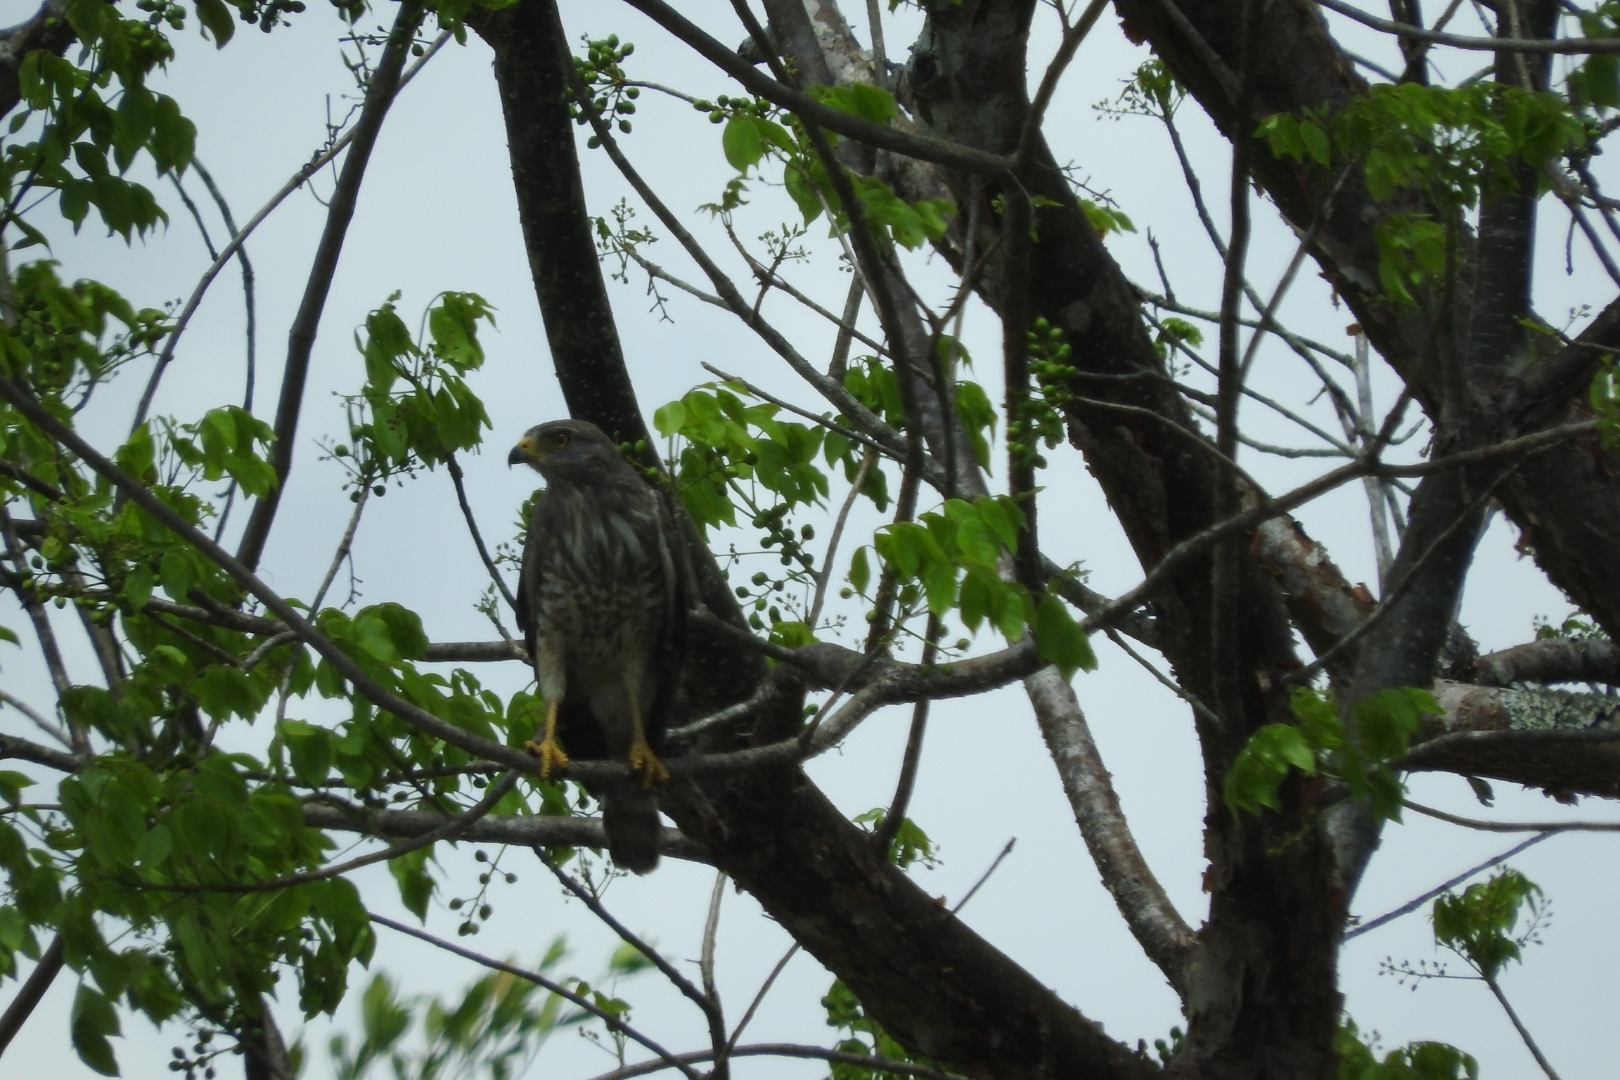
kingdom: Animalia
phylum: Chordata
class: Aves
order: Accipitriformes
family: Accipitridae
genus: Rupornis
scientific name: Rupornis magnirostris
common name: Roadside hawk
